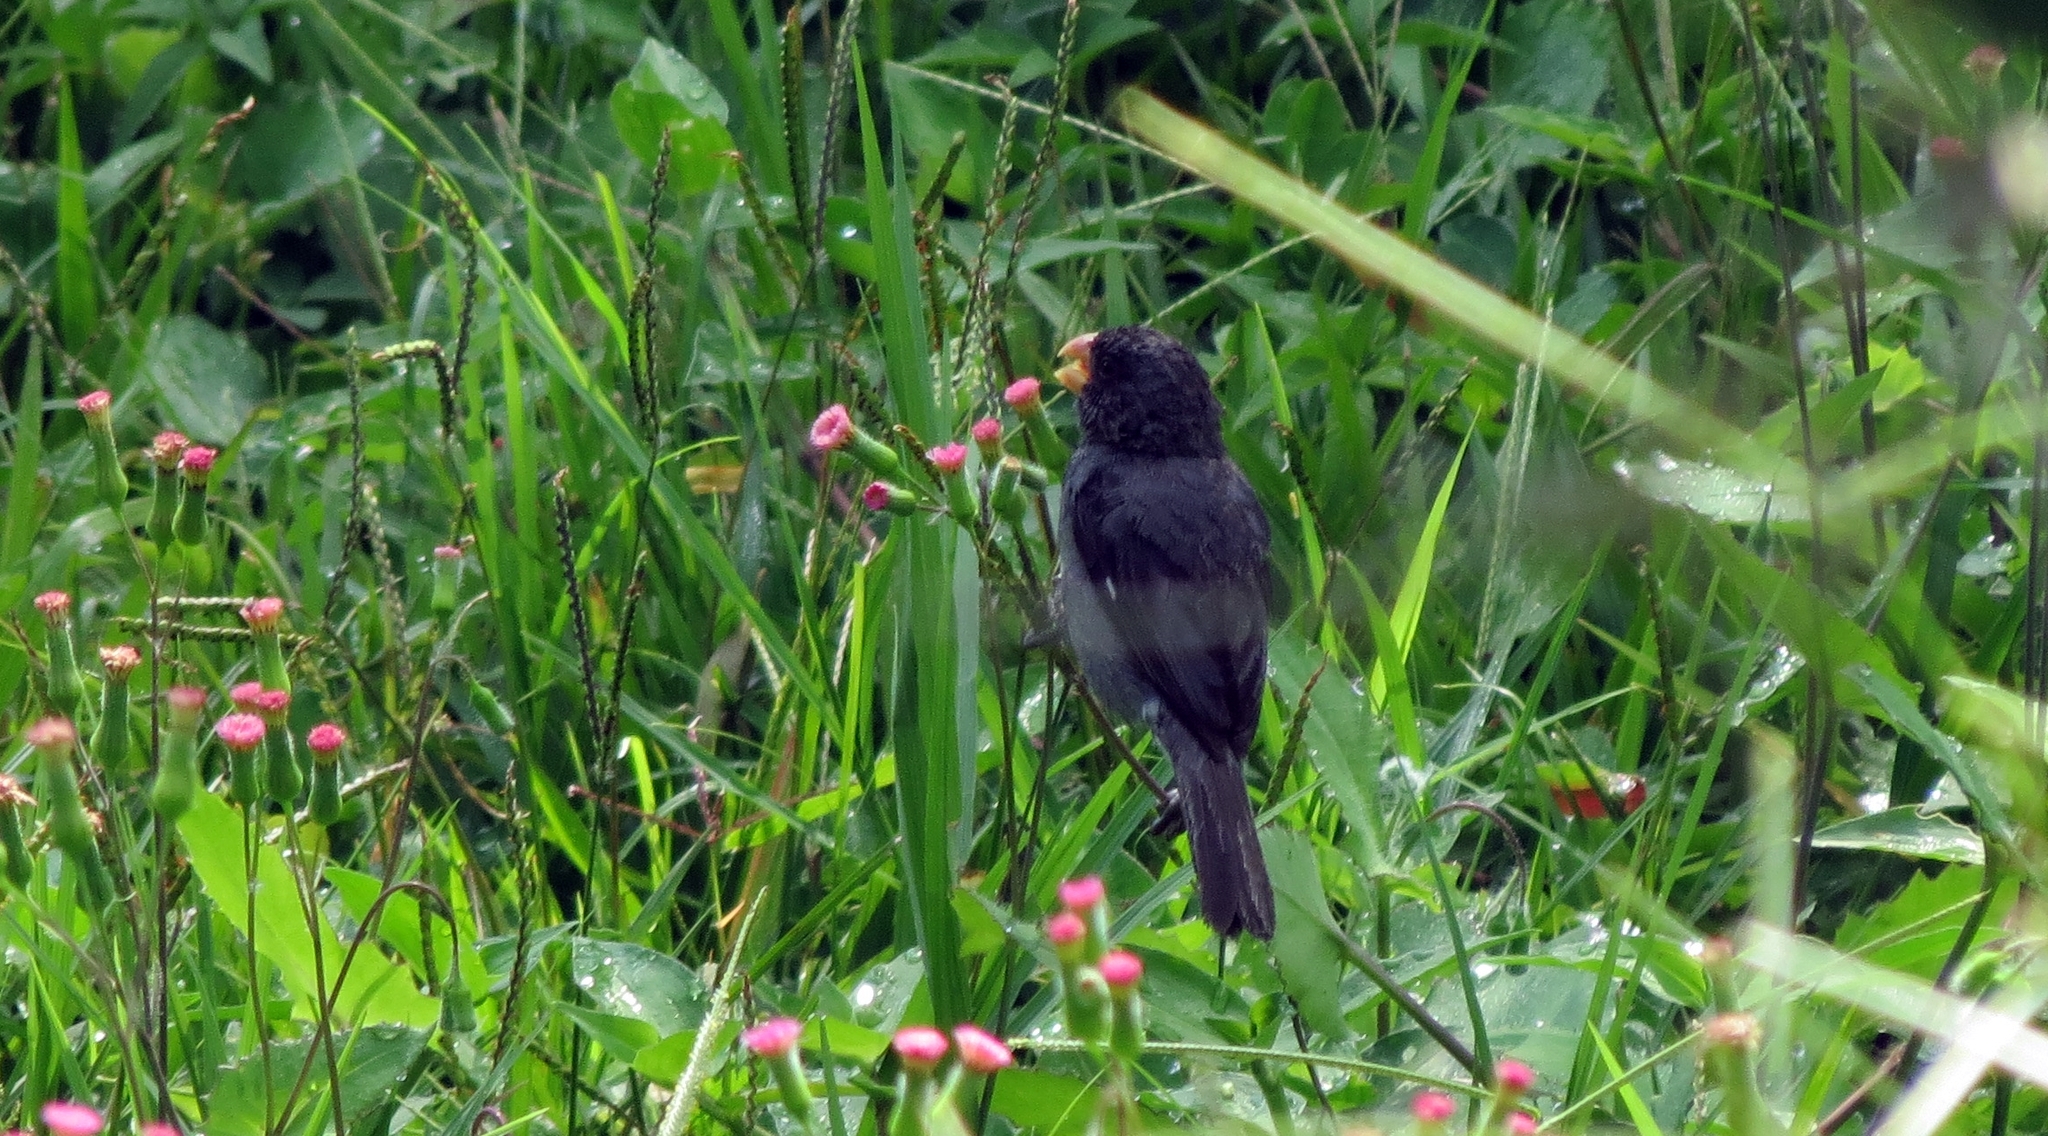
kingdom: Animalia
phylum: Chordata
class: Aves
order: Passeriformes
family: Thraupidae
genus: Sporophila
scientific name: Sporophila intermedia
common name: Grey seedeater
